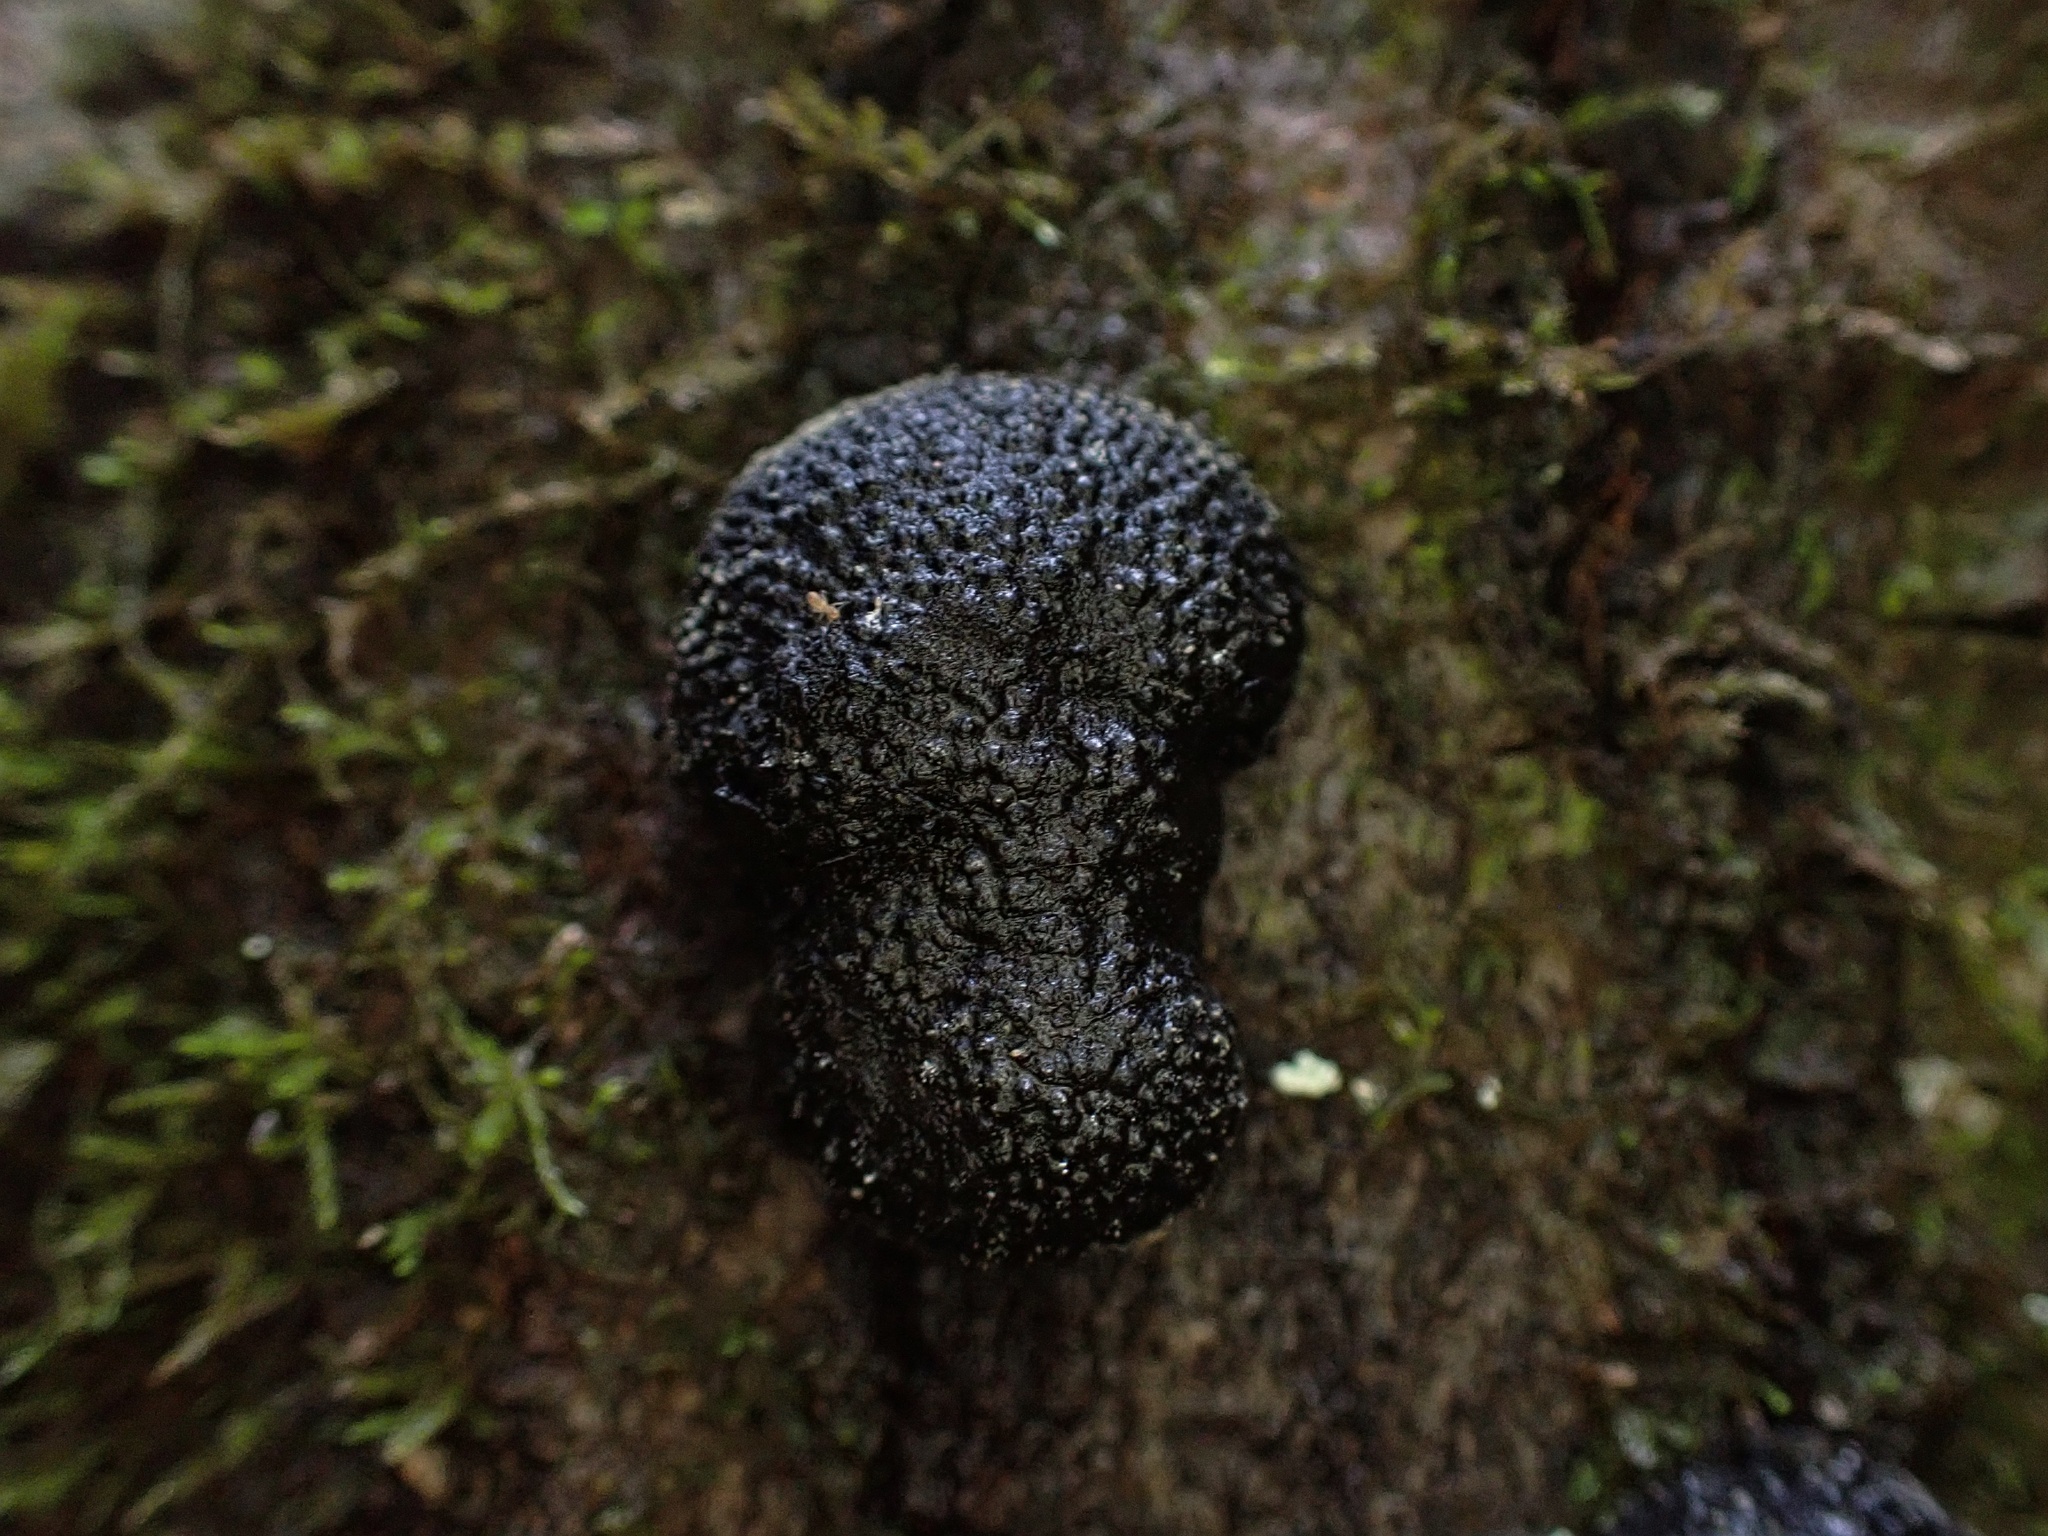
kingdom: Fungi
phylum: Ascomycota
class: Sordariomycetes
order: Xylariales
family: Hypoxylaceae
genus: Annulohypoxylon
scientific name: Annulohypoxylon thouarsianum
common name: Cramp balls
